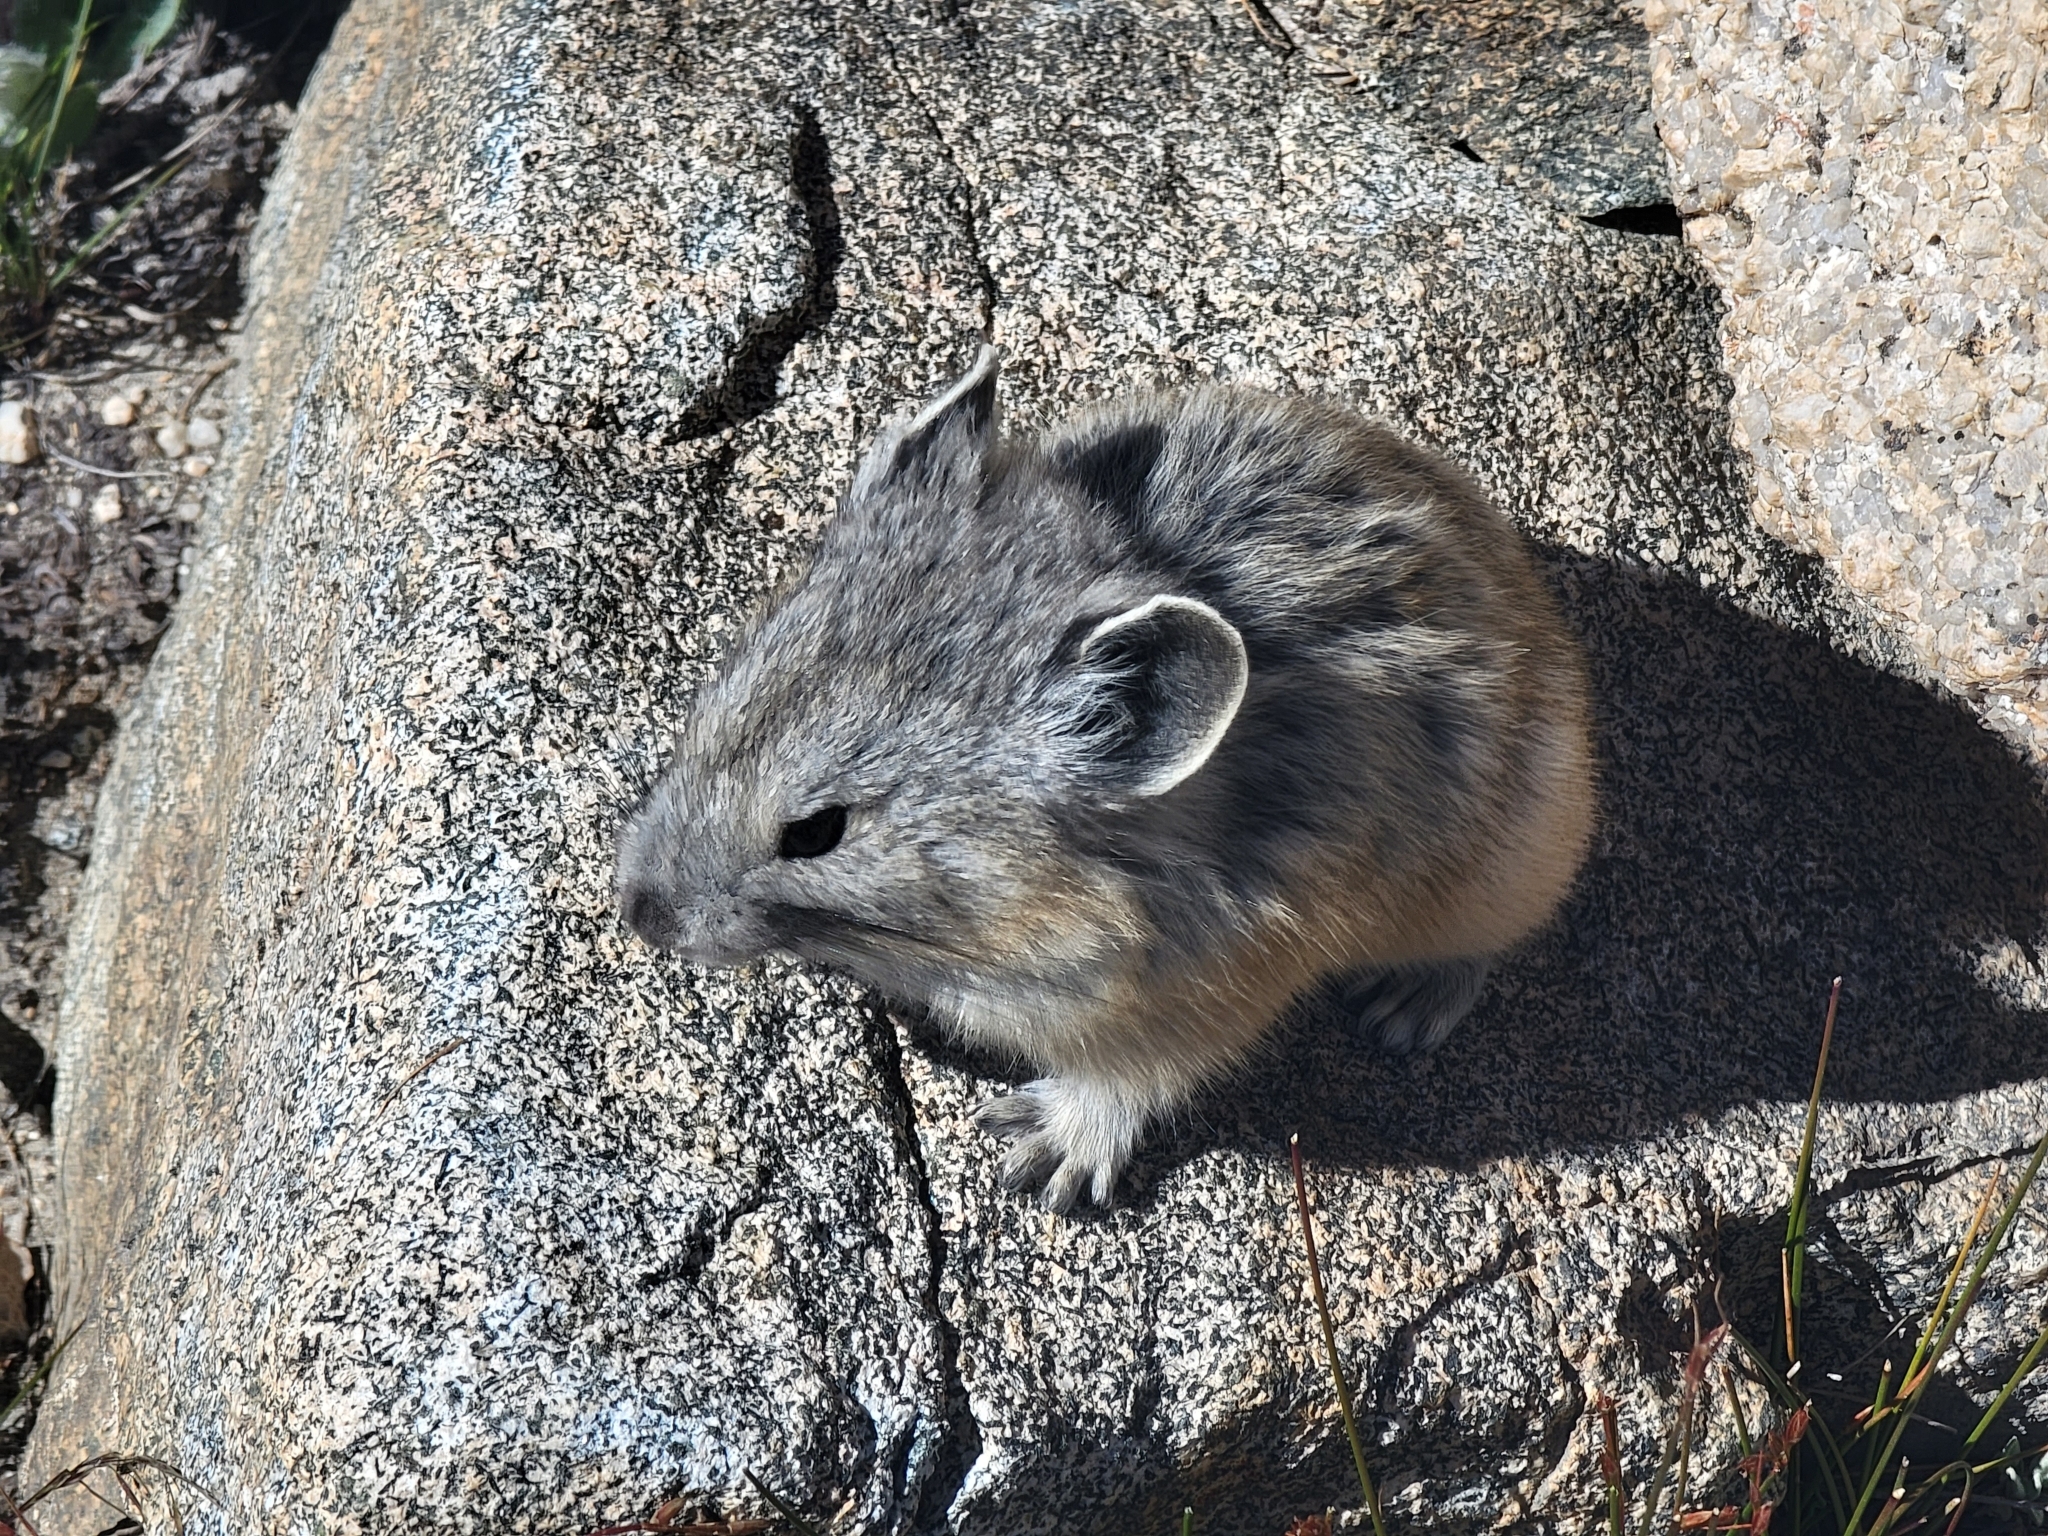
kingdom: Animalia
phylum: Chordata
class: Mammalia
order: Lagomorpha
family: Ochotonidae
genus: Ochotona
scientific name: Ochotona princeps
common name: American pika
